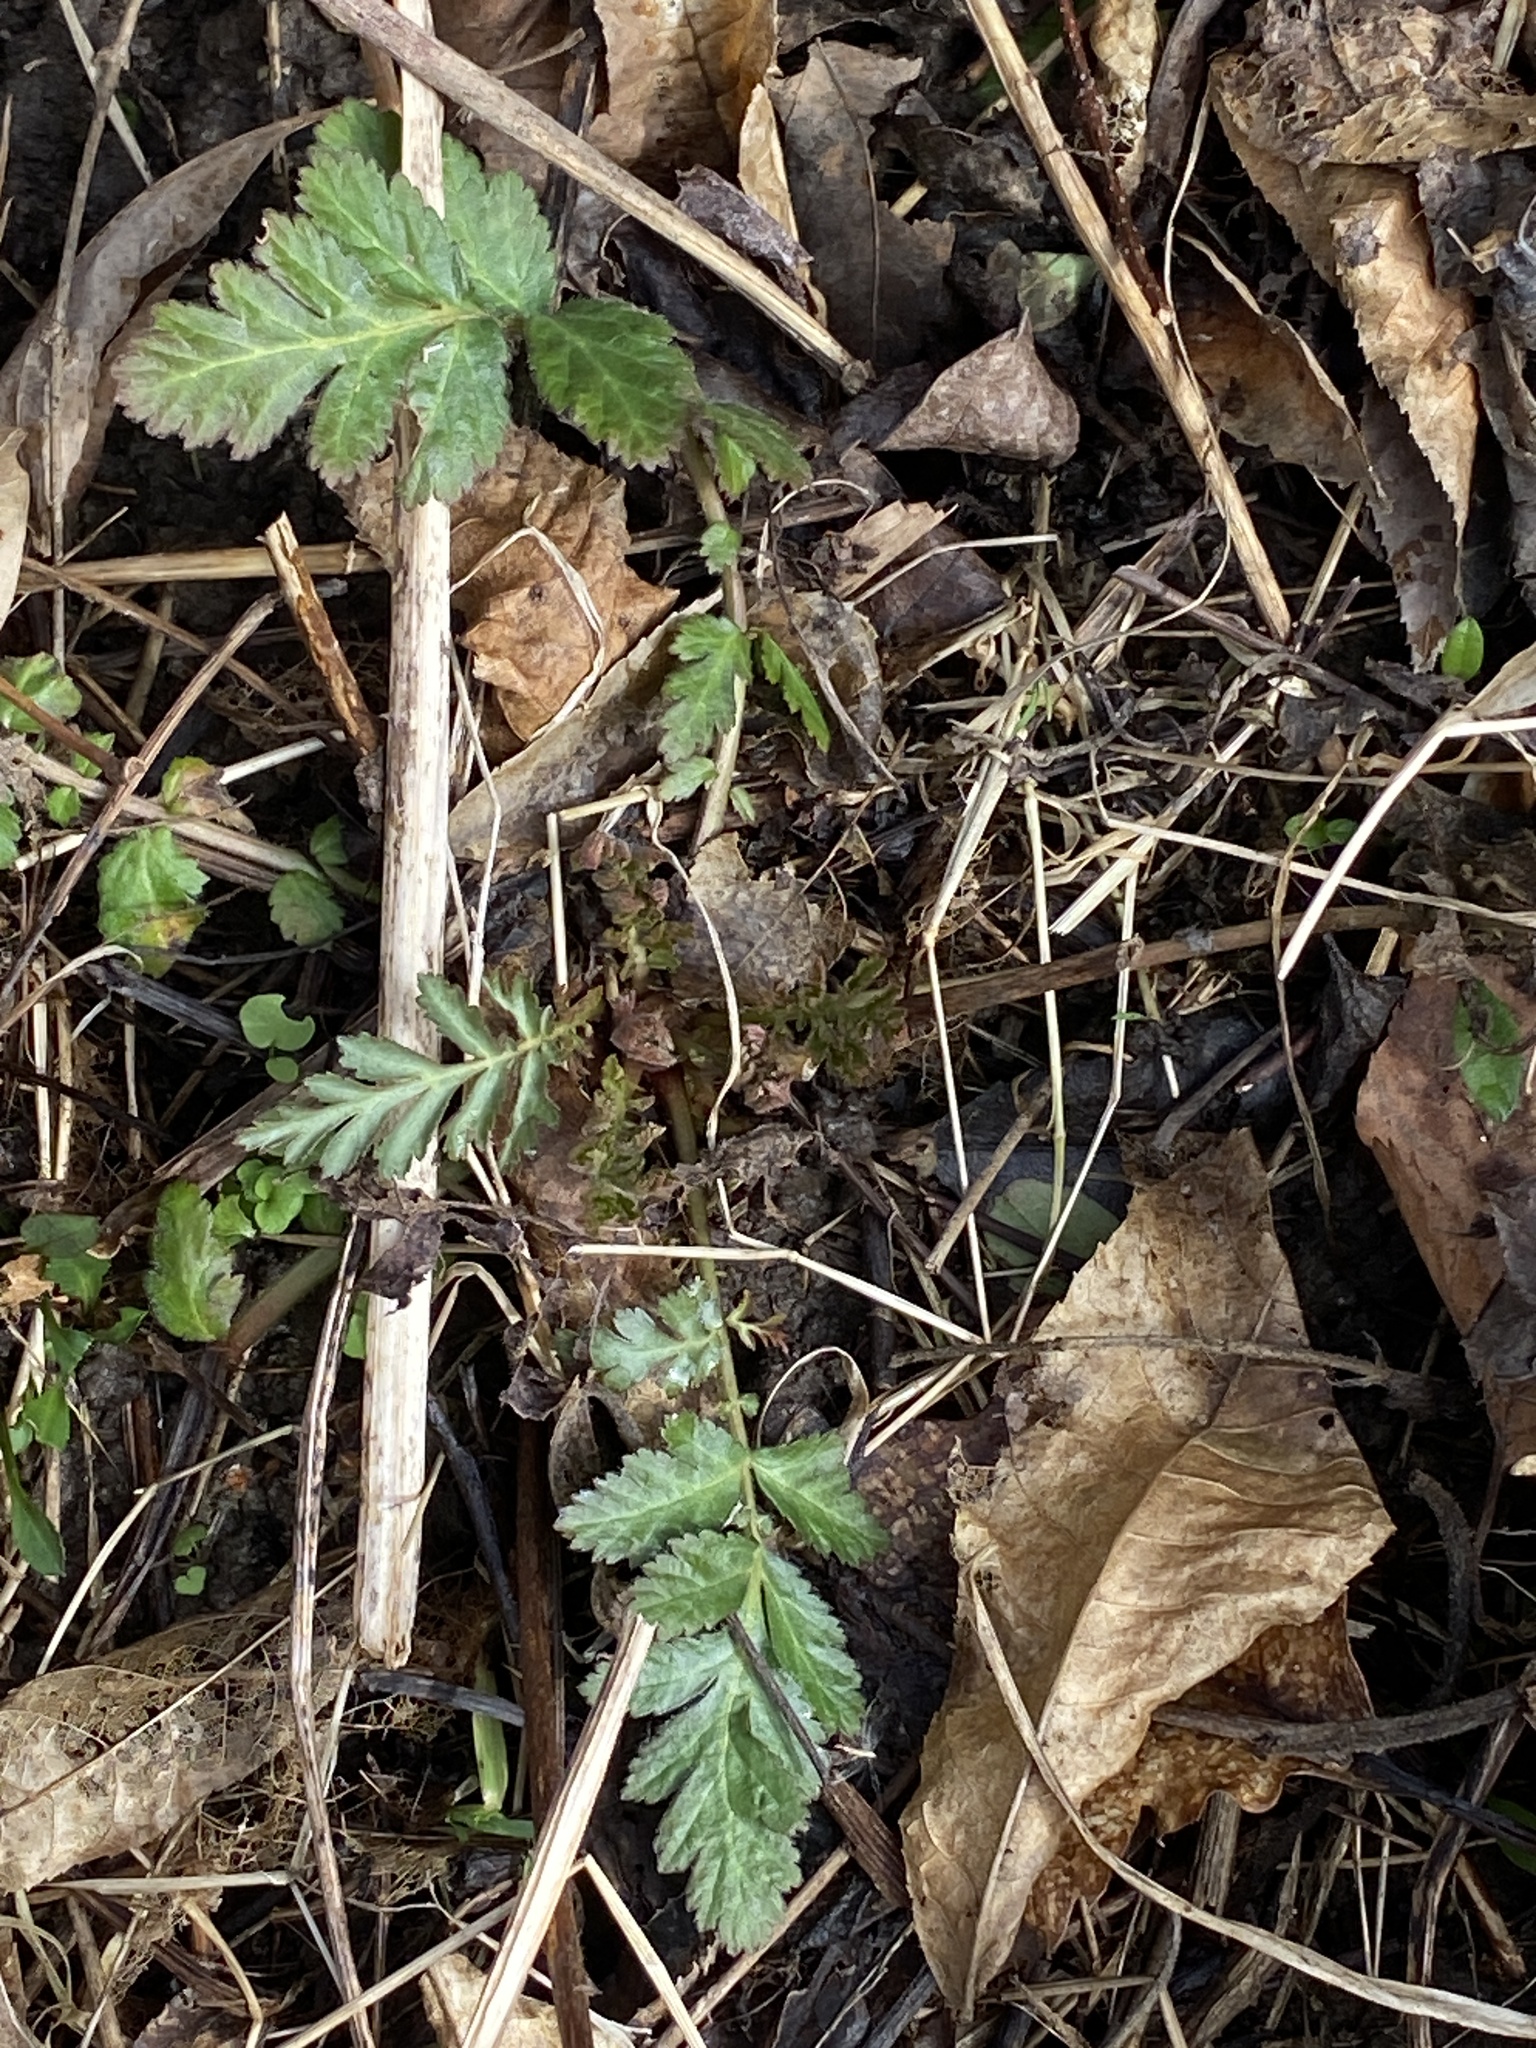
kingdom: Plantae
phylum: Tracheophyta
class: Magnoliopsida
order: Rosales
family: Rosaceae
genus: Geum
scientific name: Geum canadense
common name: White avens
